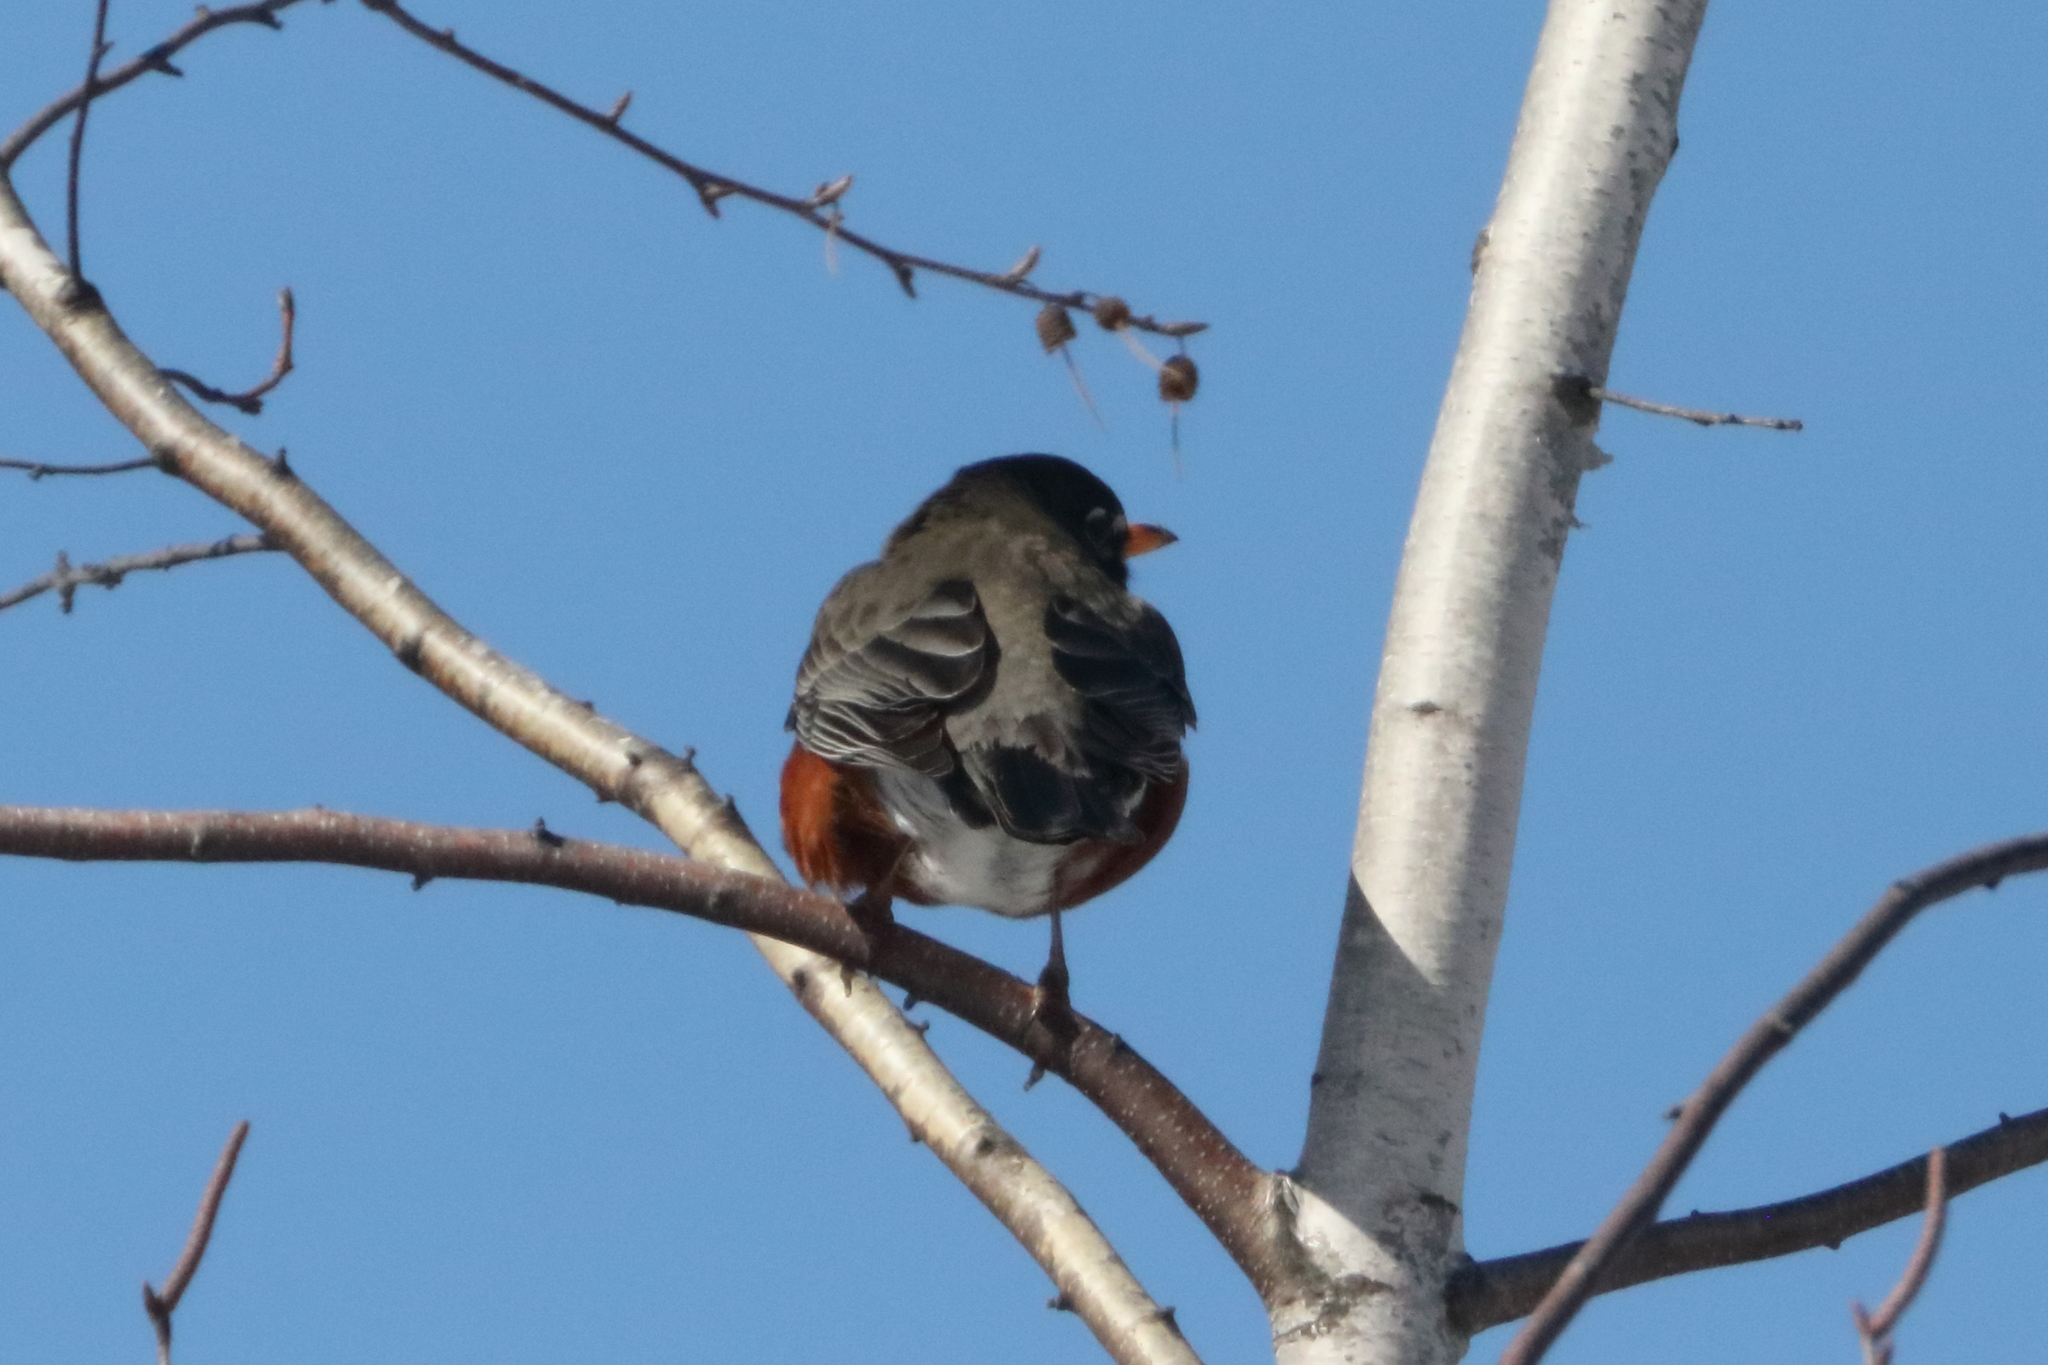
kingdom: Animalia
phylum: Chordata
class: Aves
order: Passeriformes
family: Turdidae
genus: Turdus
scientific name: Turdus migratorius
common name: American robin
